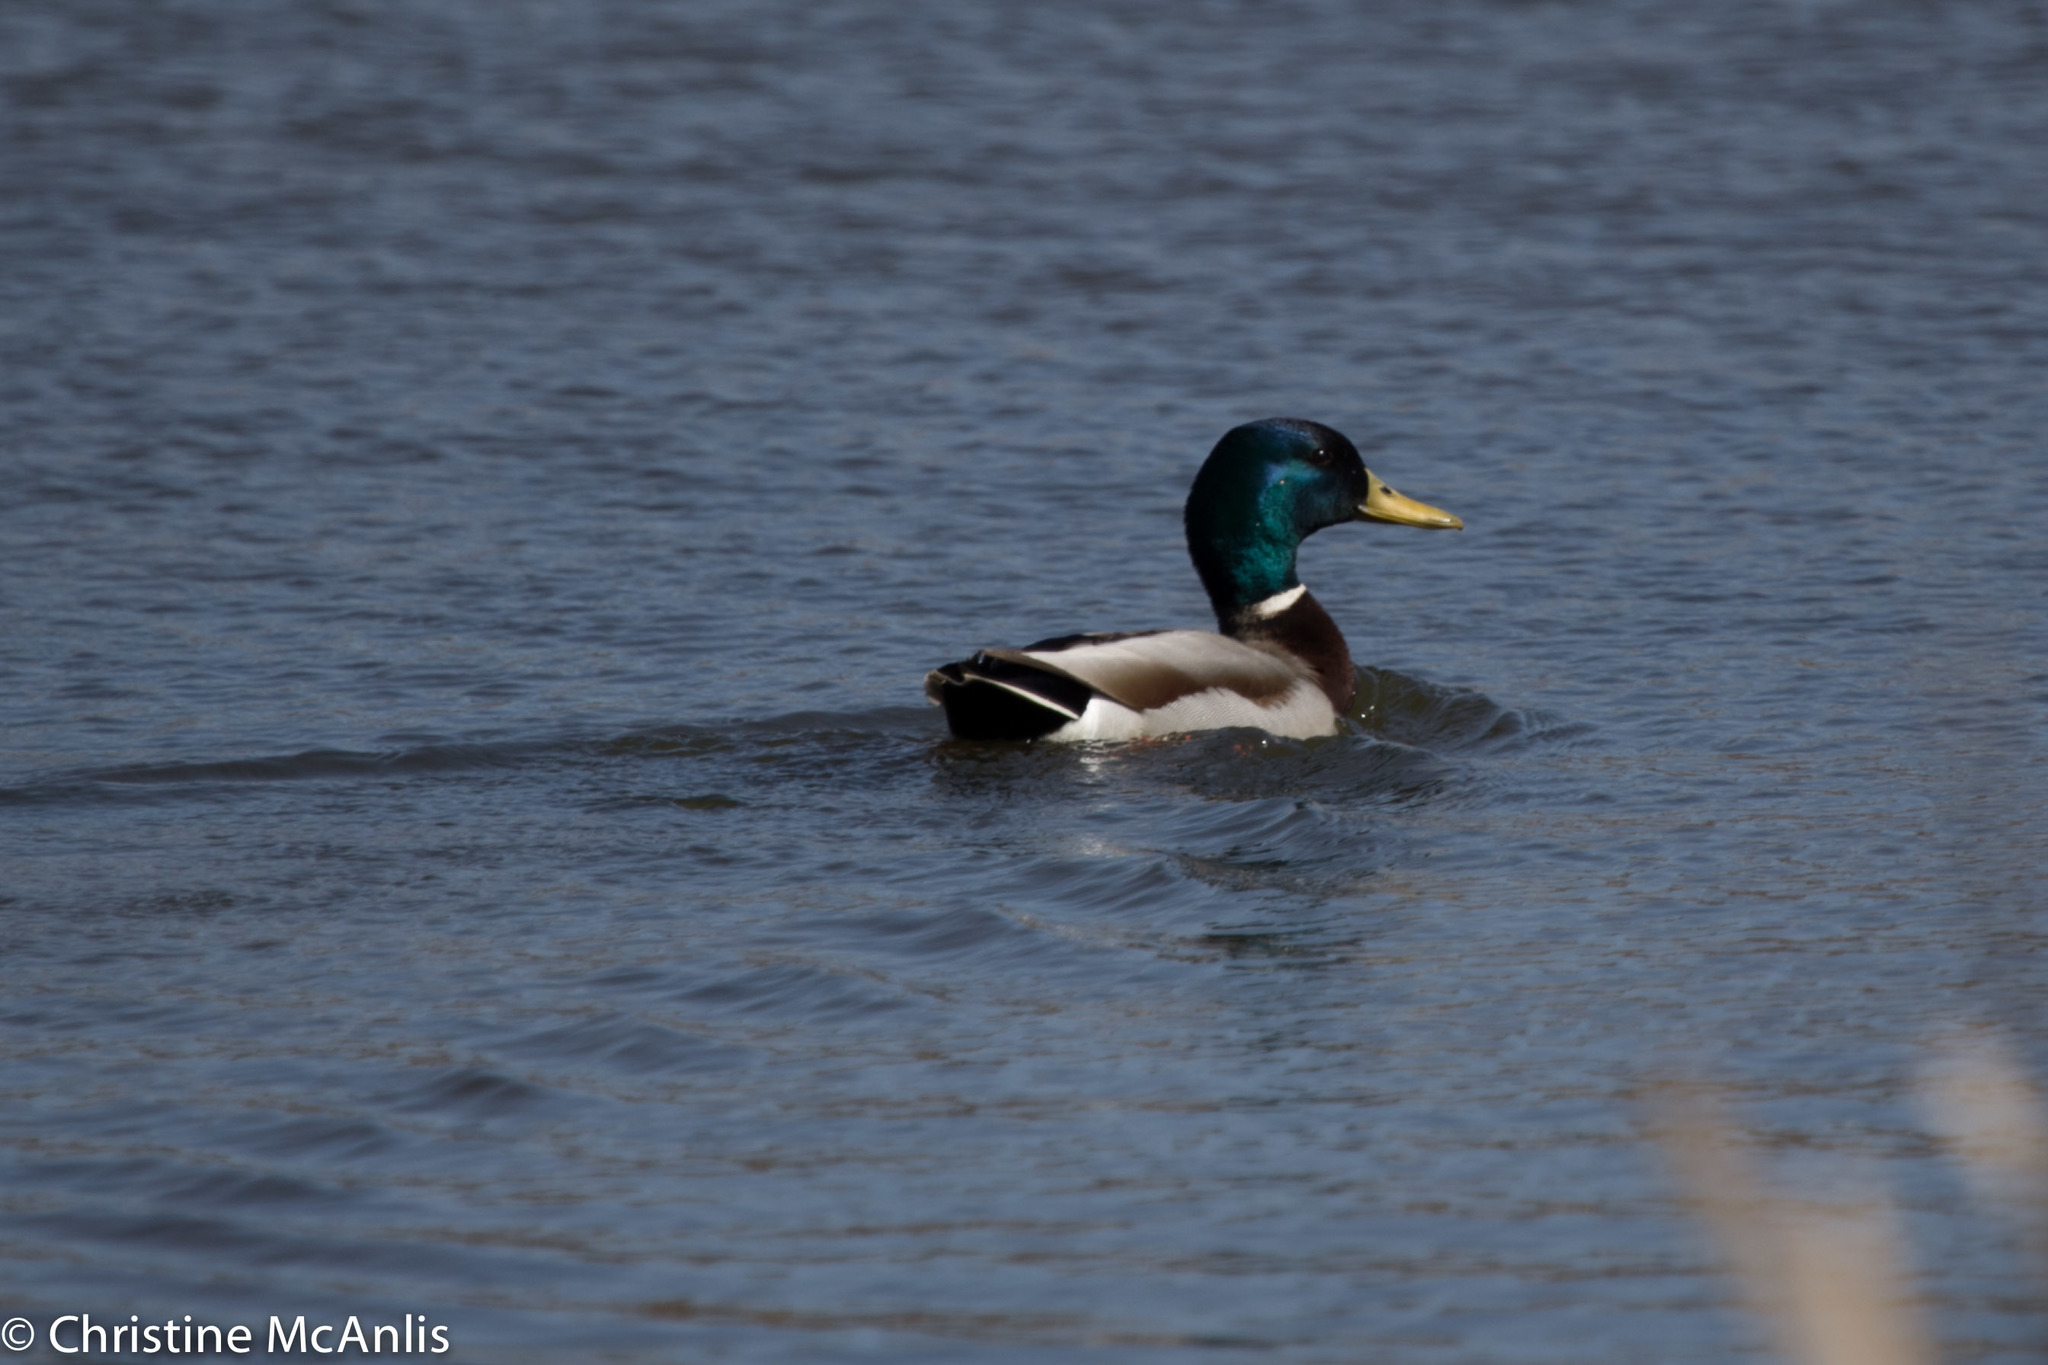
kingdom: Animalia
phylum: Chordata
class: Aves
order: Anseriformes
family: Anatidae
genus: Anas
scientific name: Anas platyrhynchos
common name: Mallard
